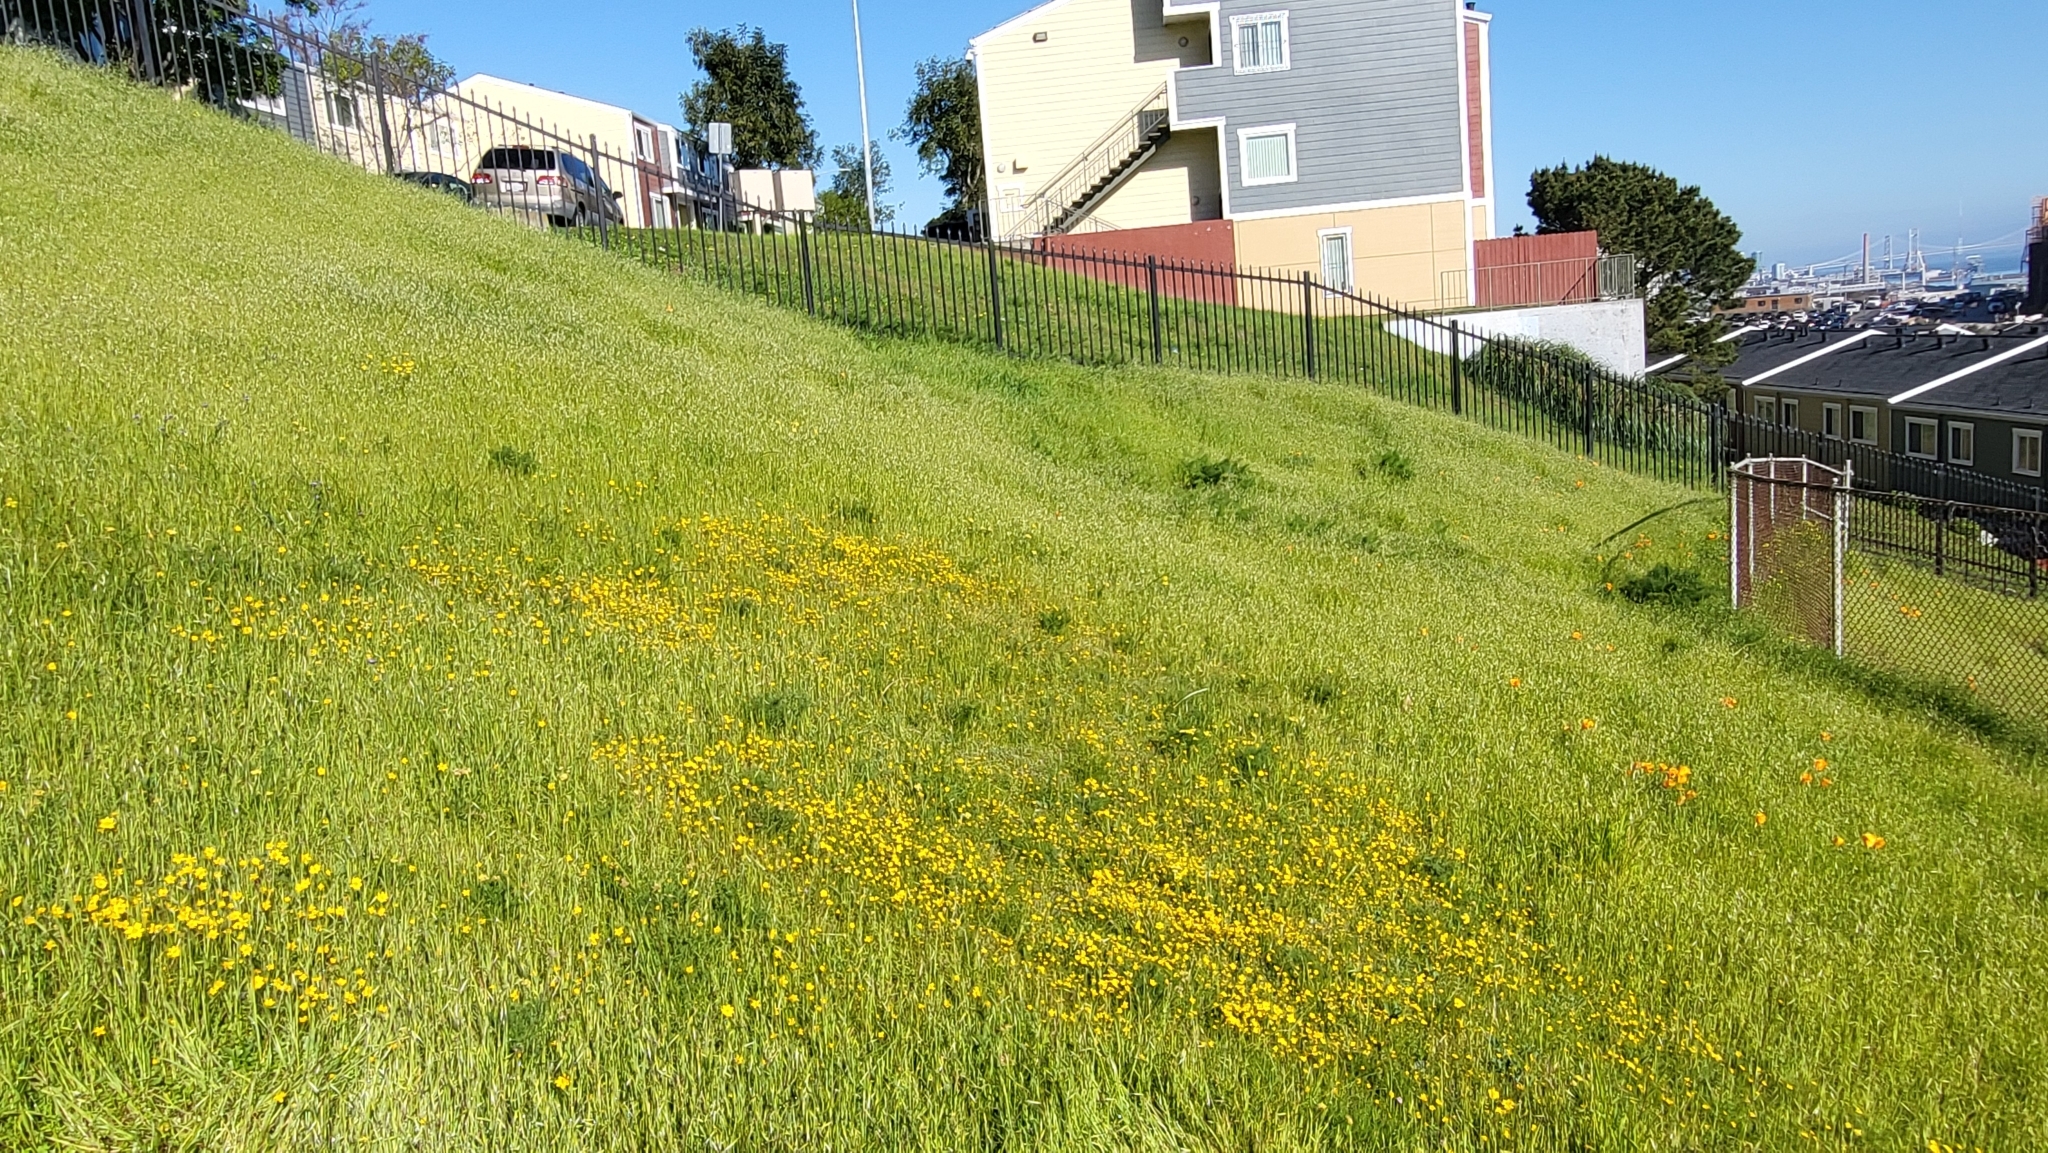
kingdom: Plantae
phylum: Tracheophyta
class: Magnoliopsida
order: Asterales
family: Asteraceae
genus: Lasthenia
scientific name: Lasthenia californica
